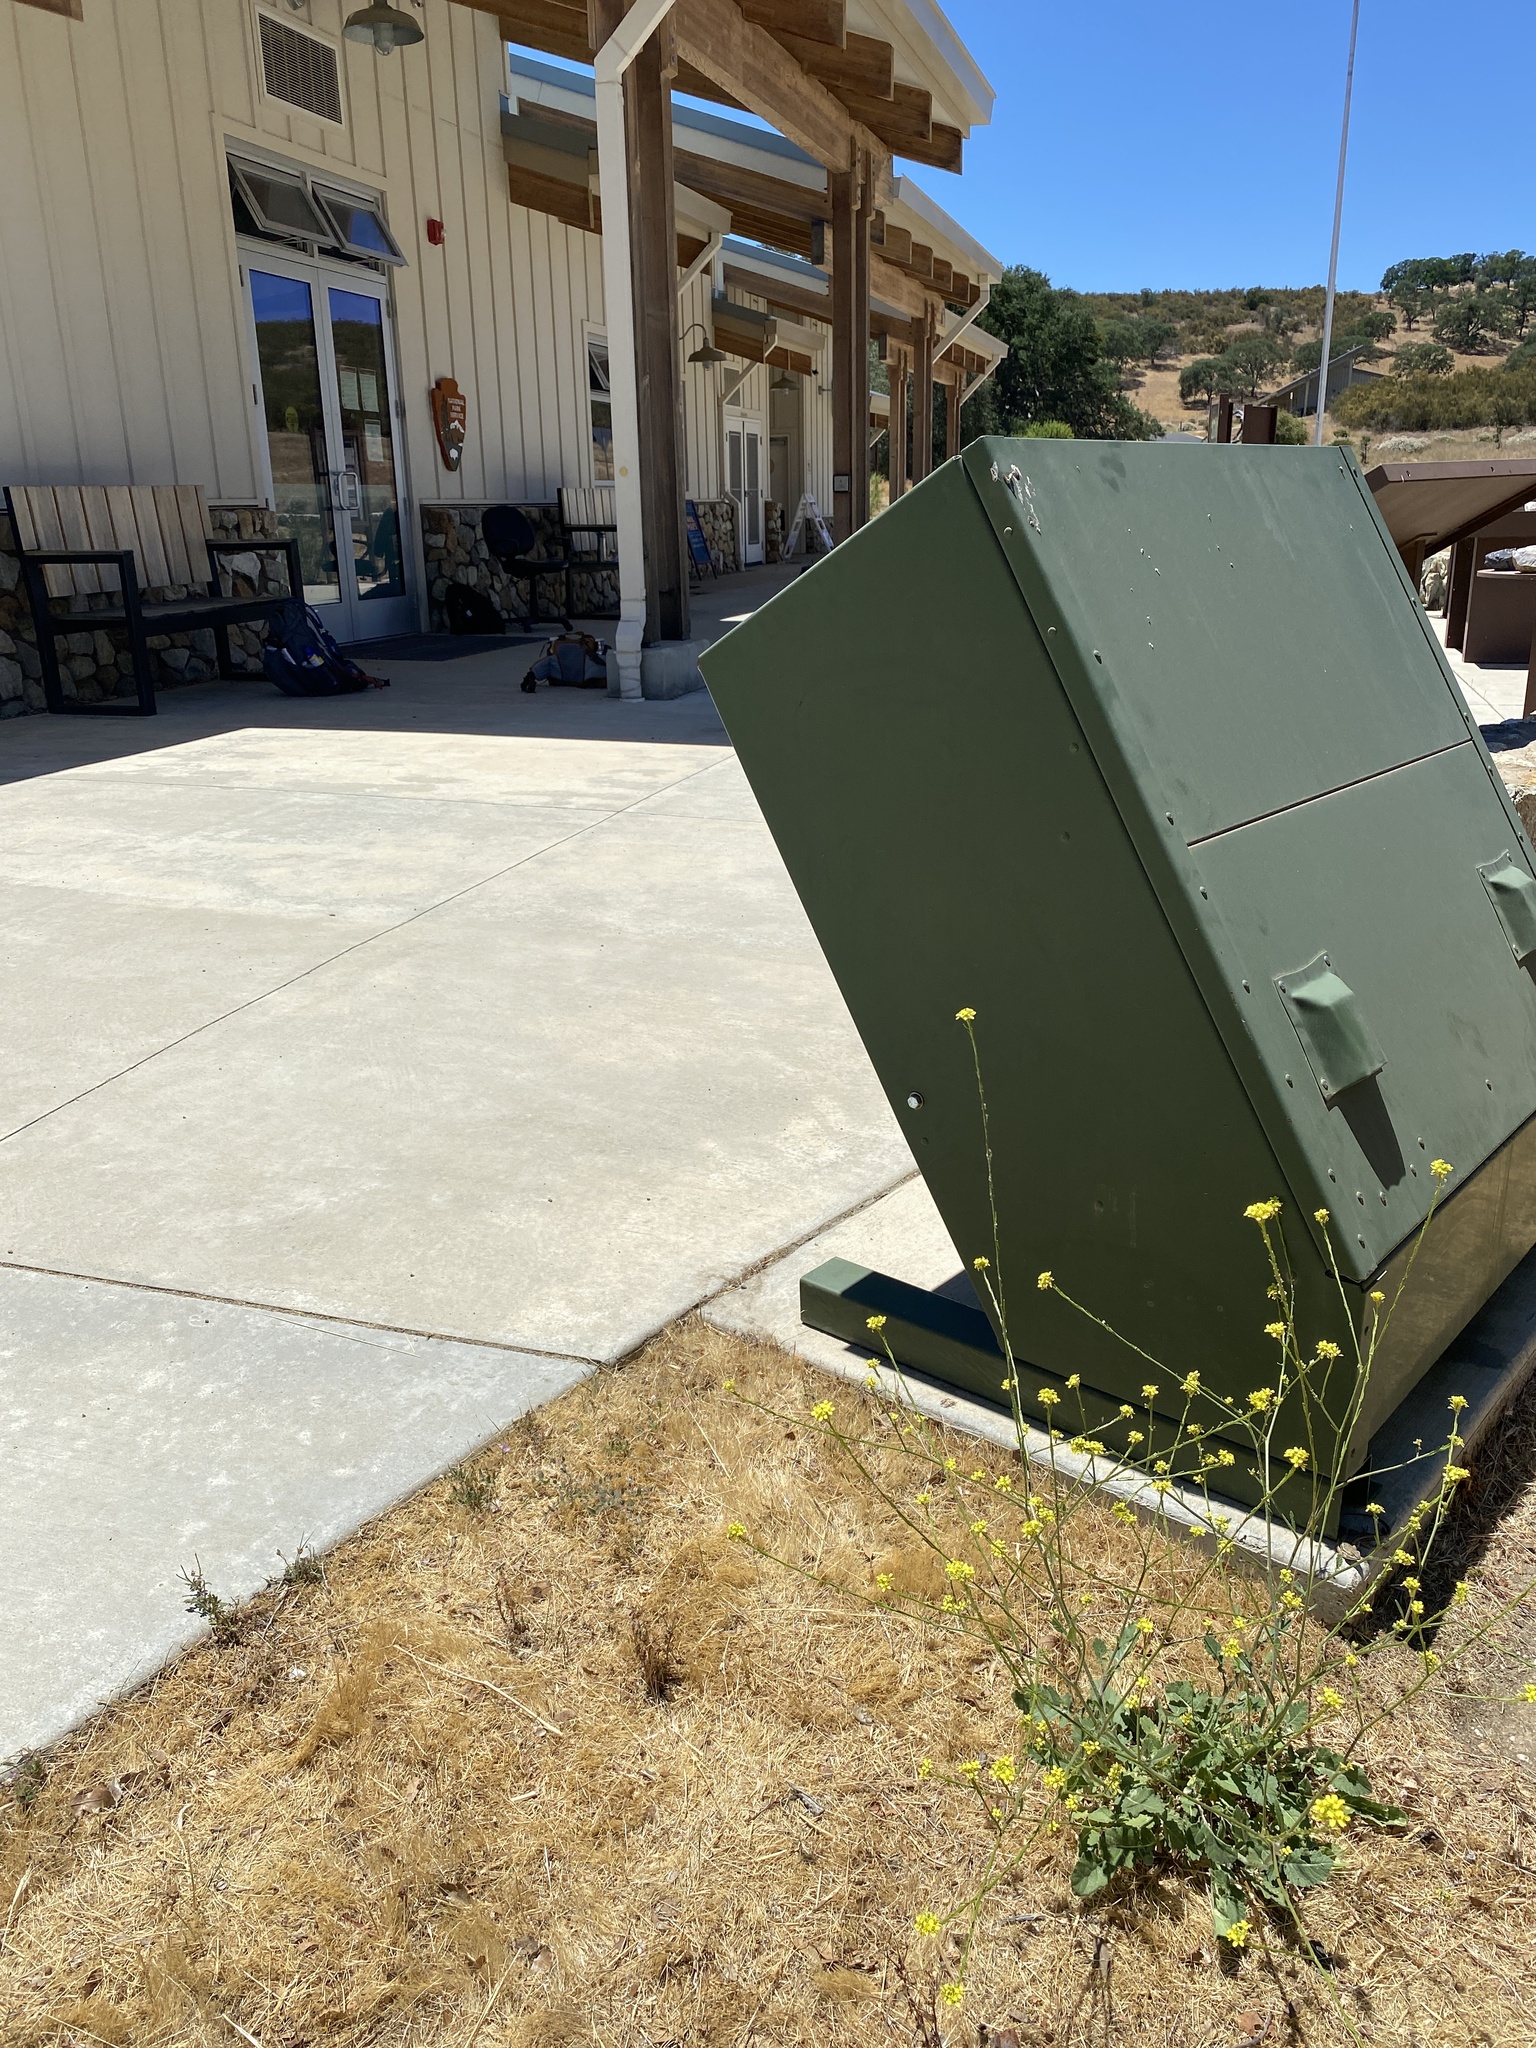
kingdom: Plantae
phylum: Tracheophyta
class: Magnoliopsida
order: Brassicales
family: Brassicaceae
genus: Hirschfeldia
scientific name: Hirschfeldia incana
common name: Hoary mustard
